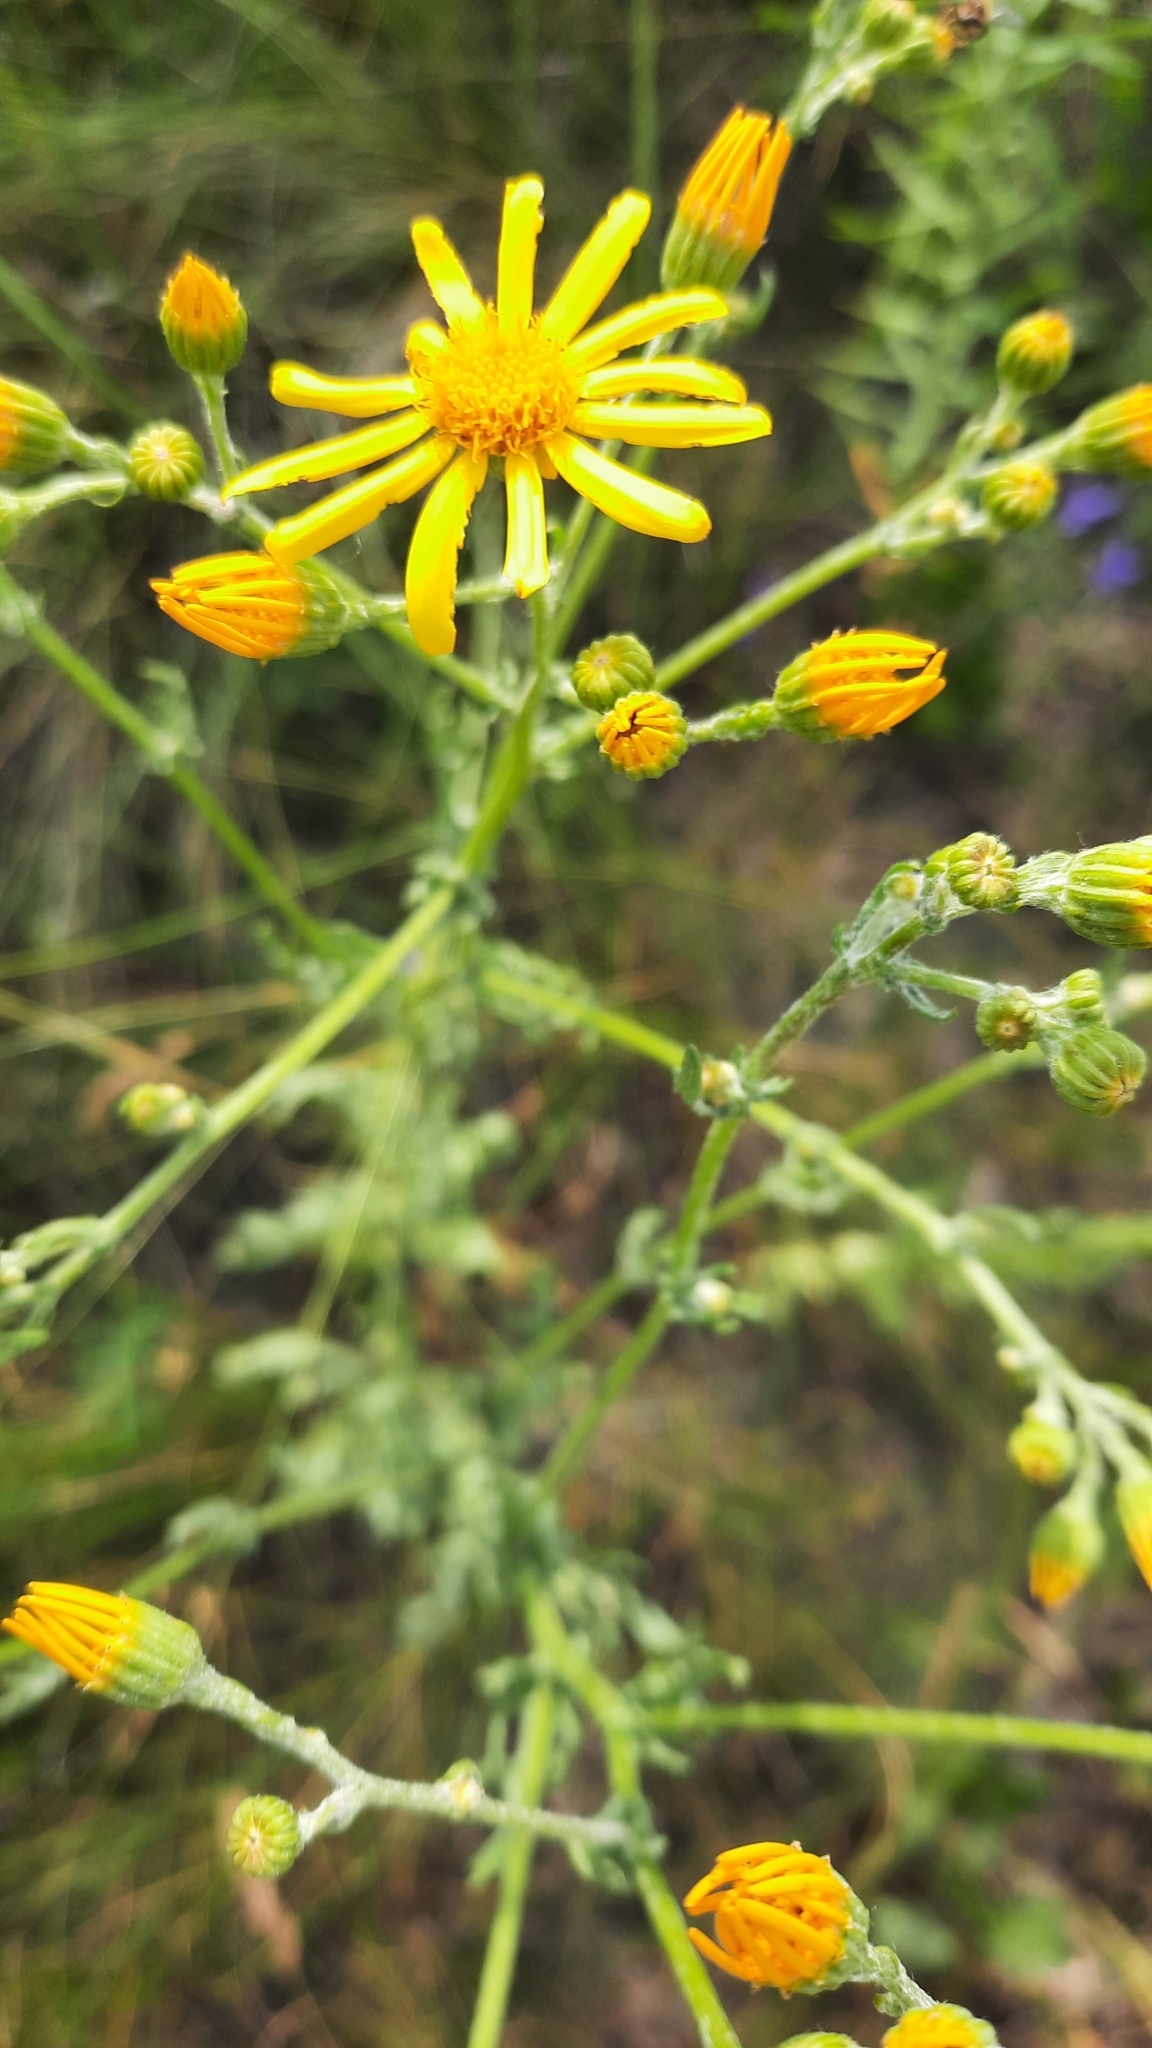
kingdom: Plantae
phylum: Tracheophyta
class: Magnoliopsida
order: Asterales
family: Asteraceae
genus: Jacobaea
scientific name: Jacobaea vulgaris
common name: Stinking willie
